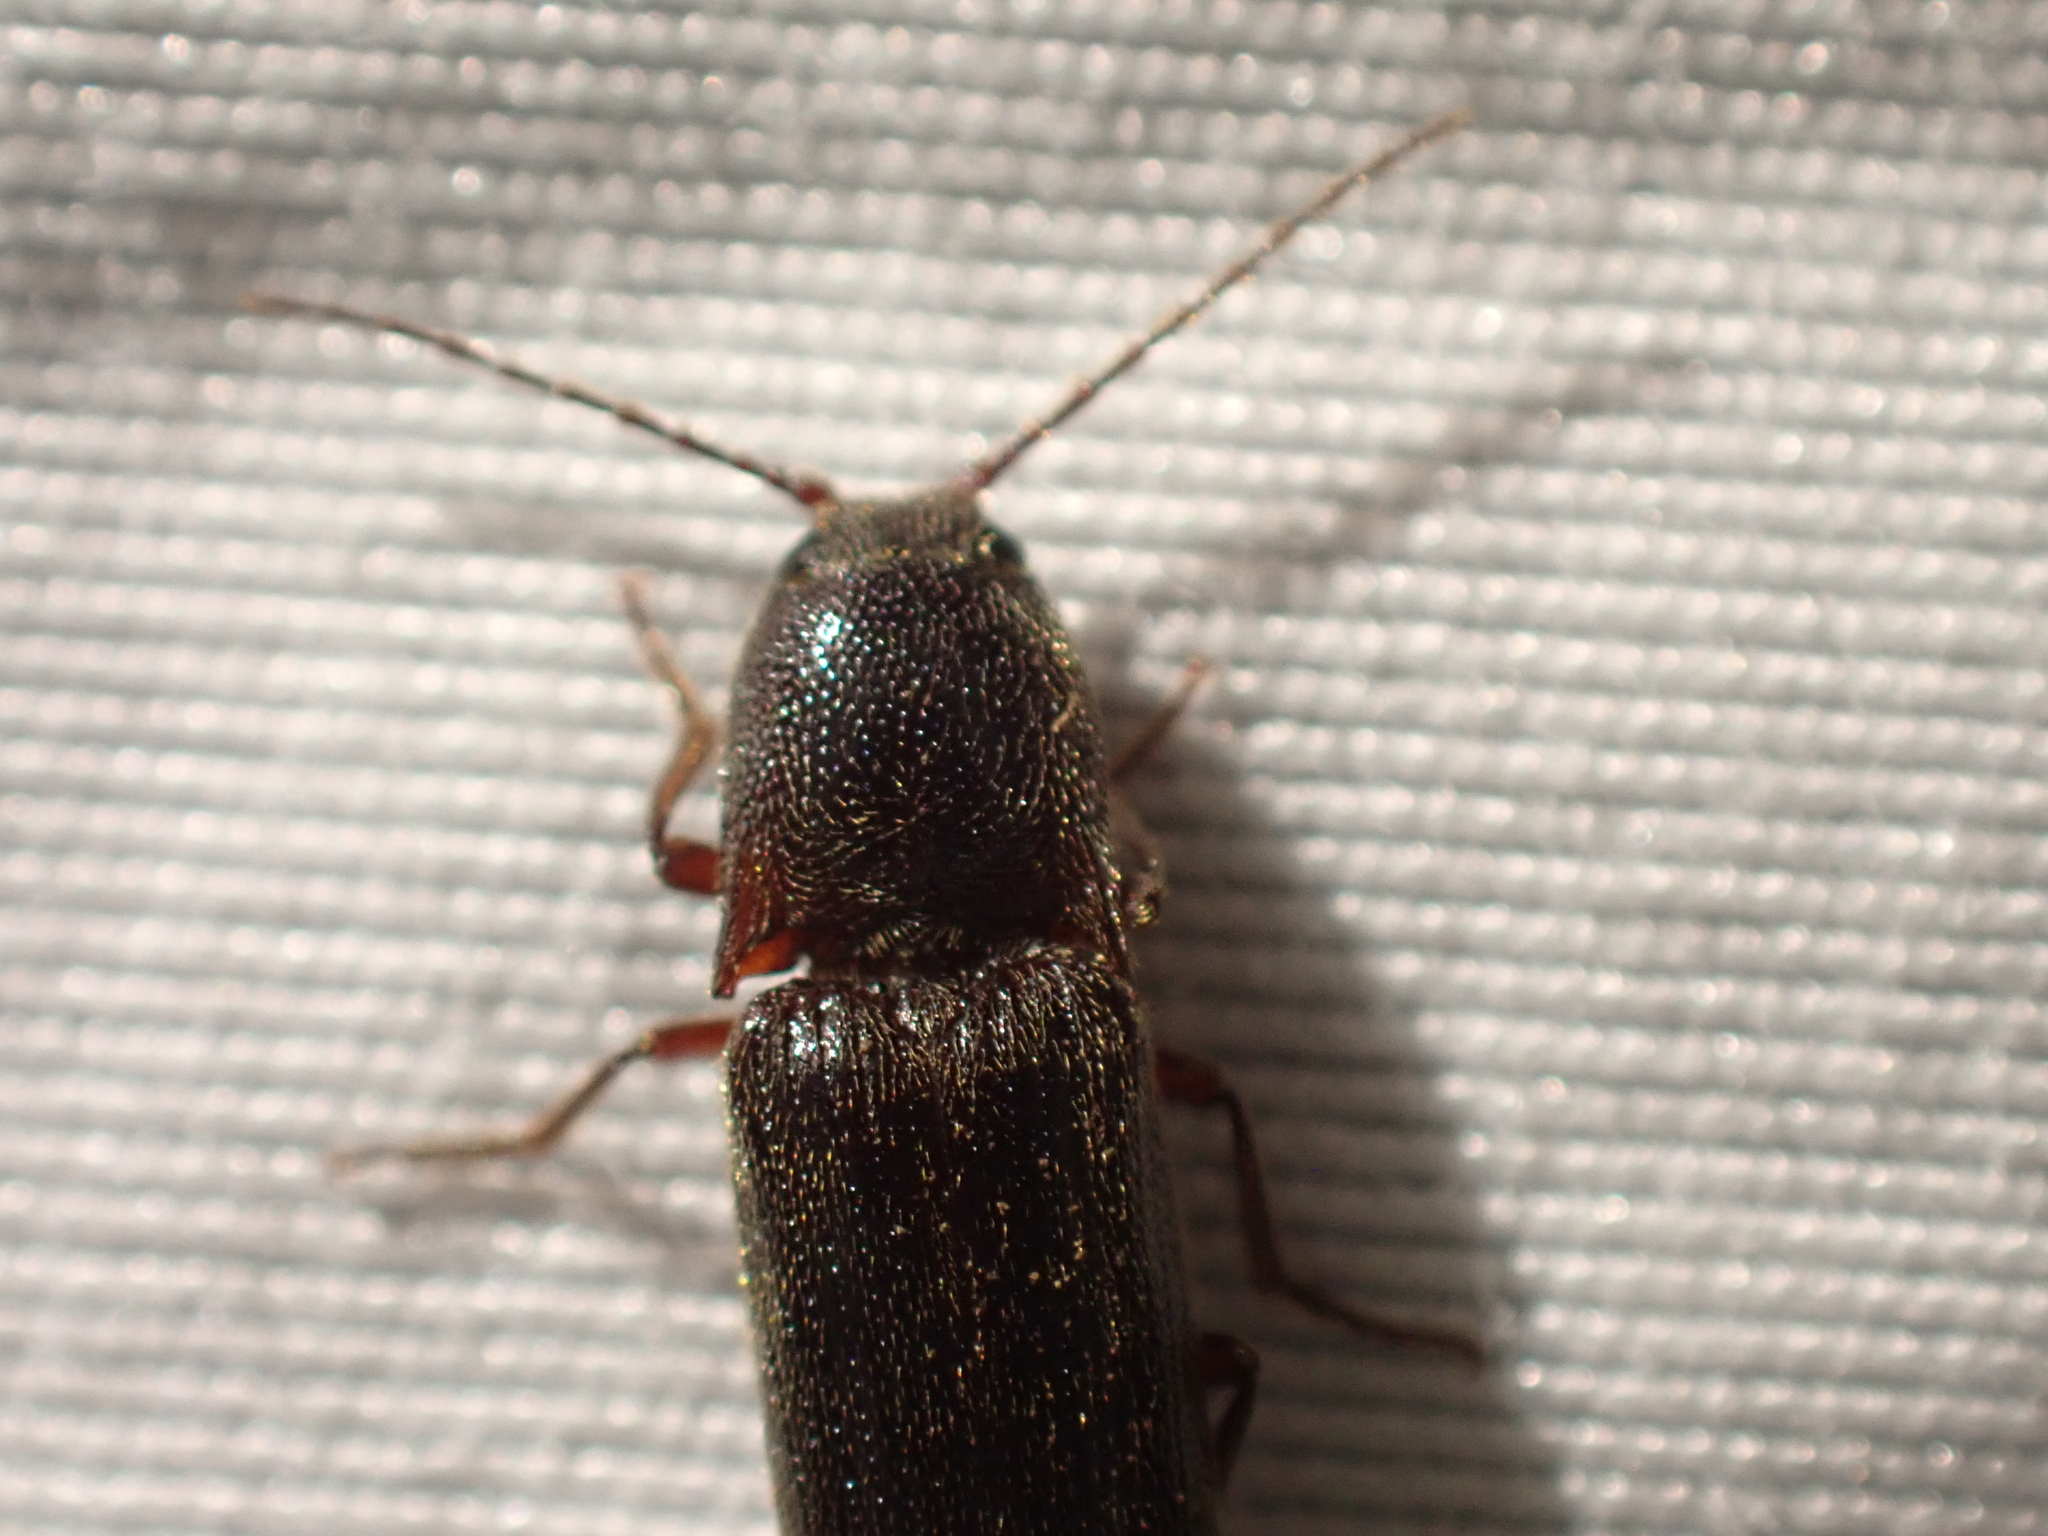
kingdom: Animalia
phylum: Arthropoda
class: Insecta
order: Coleoptera
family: Elateridae
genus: Melanotus
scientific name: Melanotus longulus
